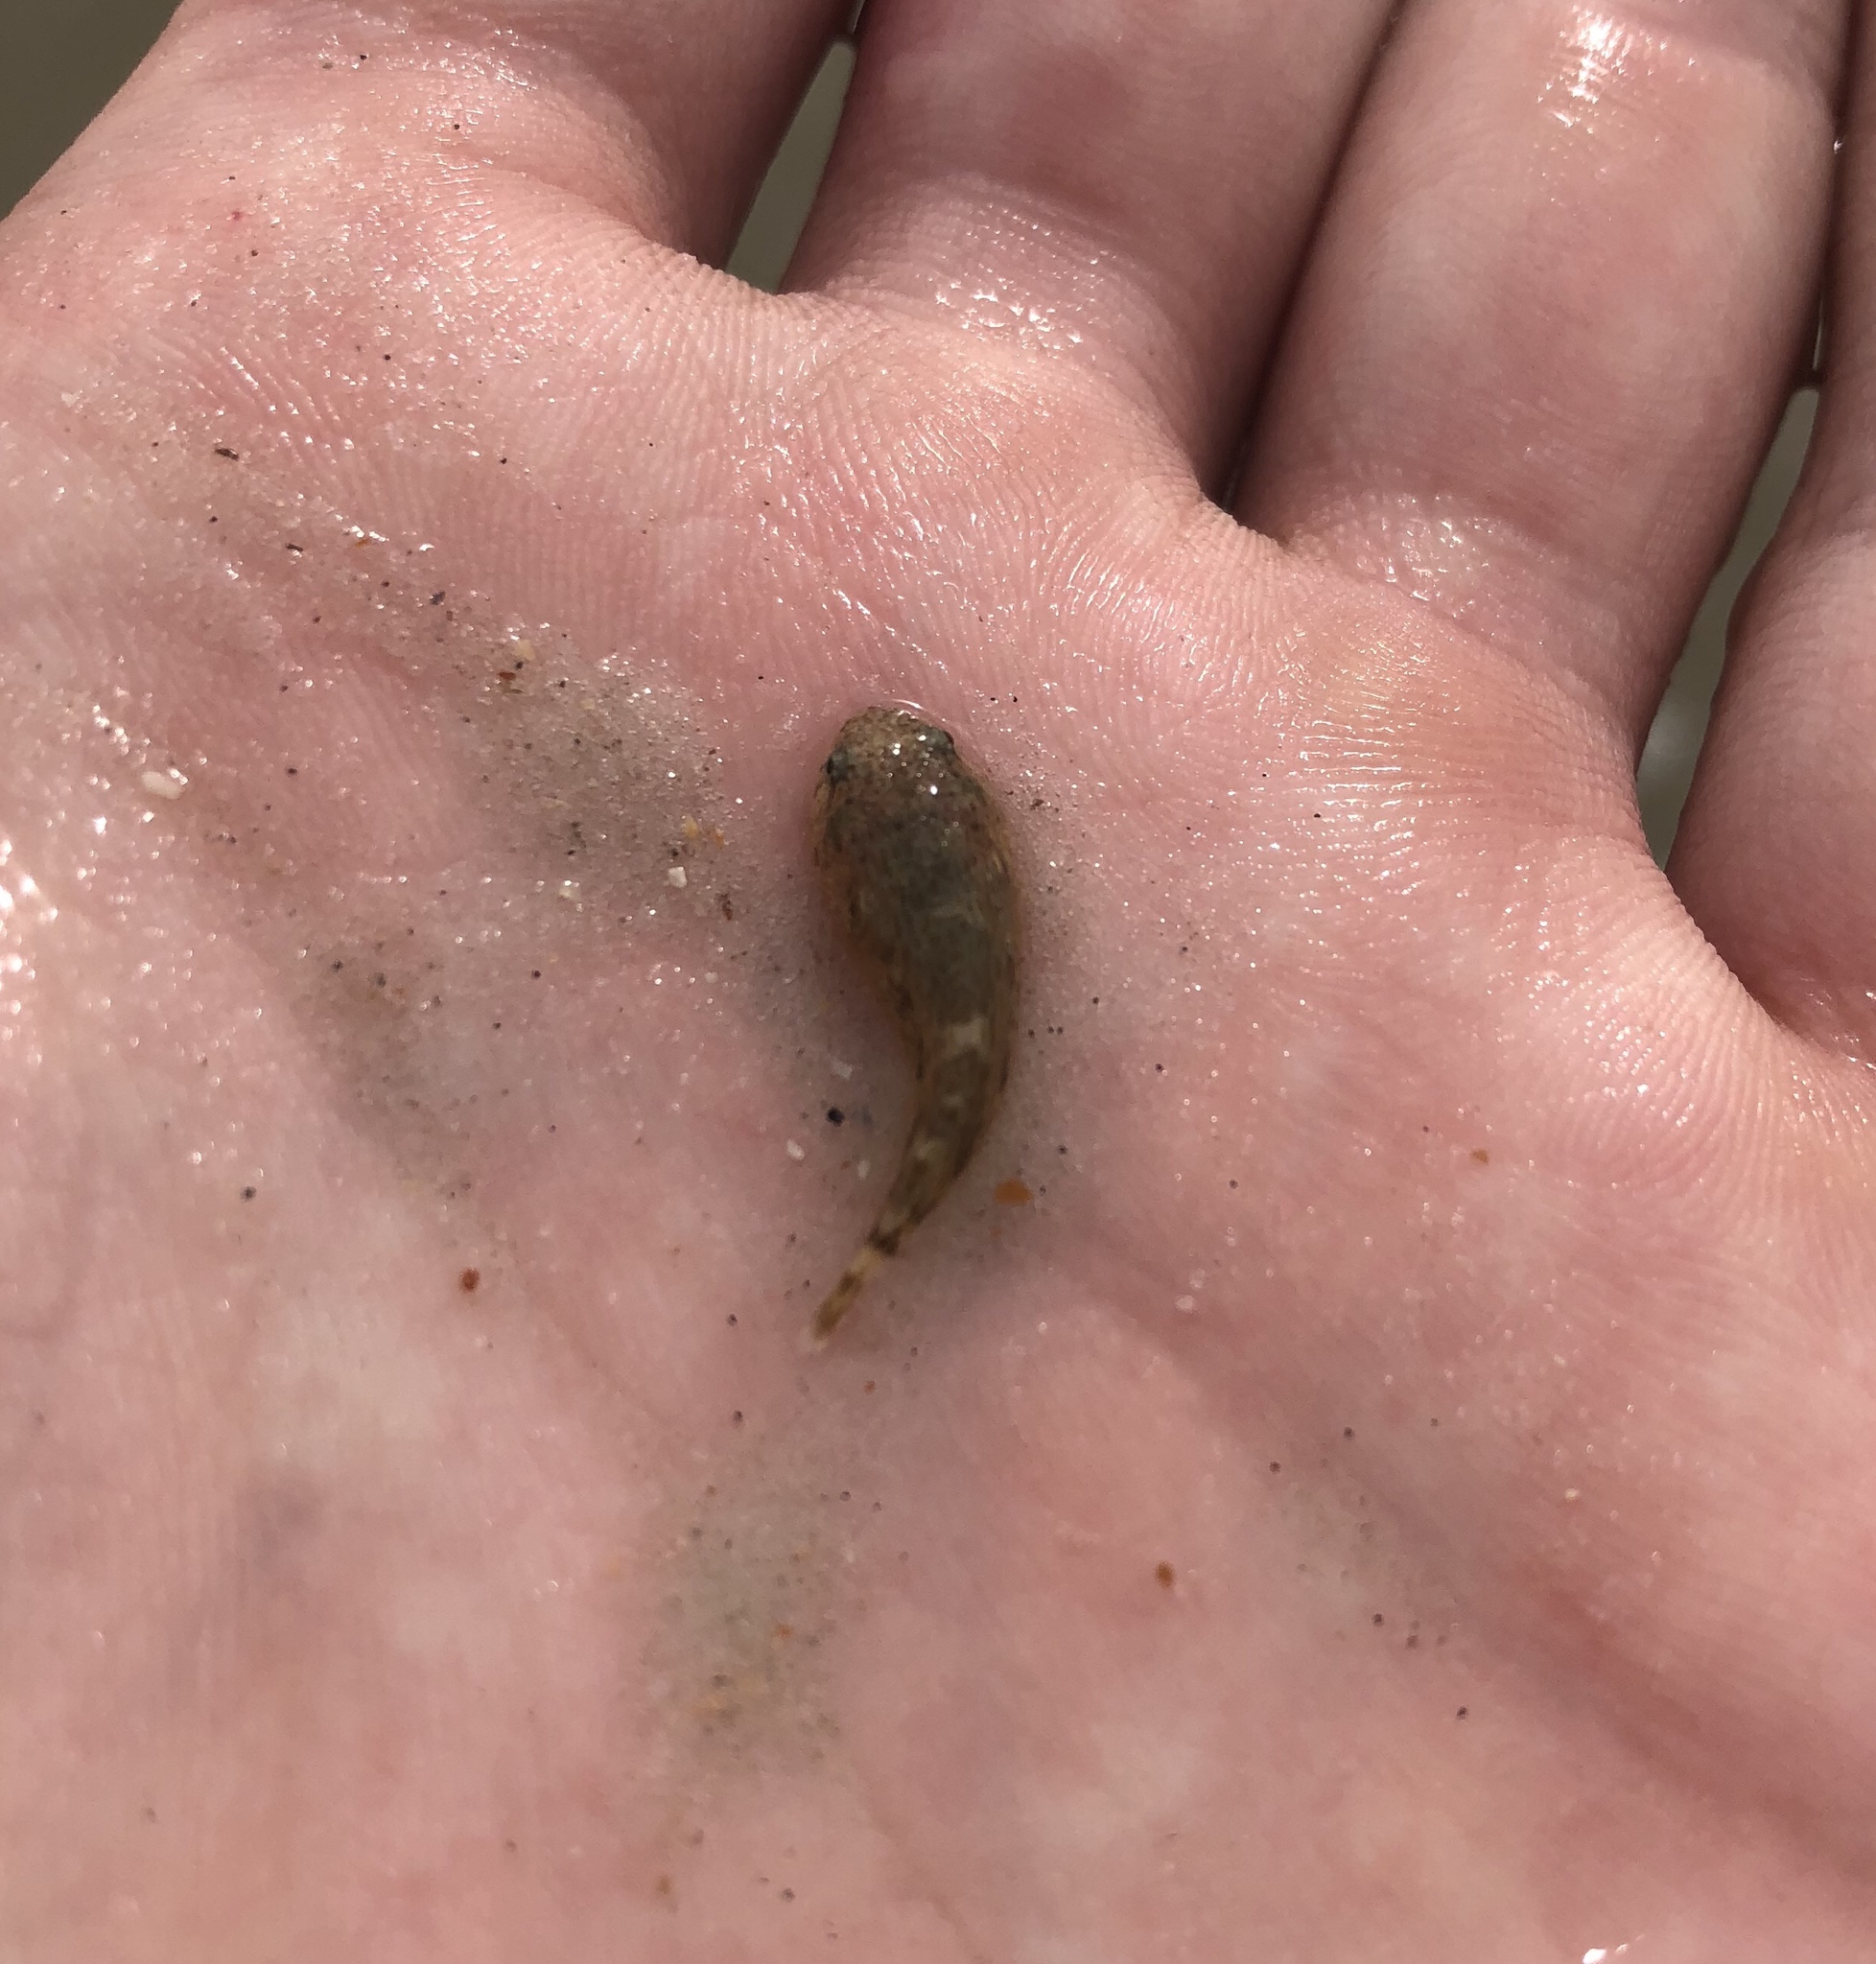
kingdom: Animalia
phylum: Chordata
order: Gobiesociformes
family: Gobiesocidae
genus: Gobiesox
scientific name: Gobiesox strumosus
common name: Skilletfish
